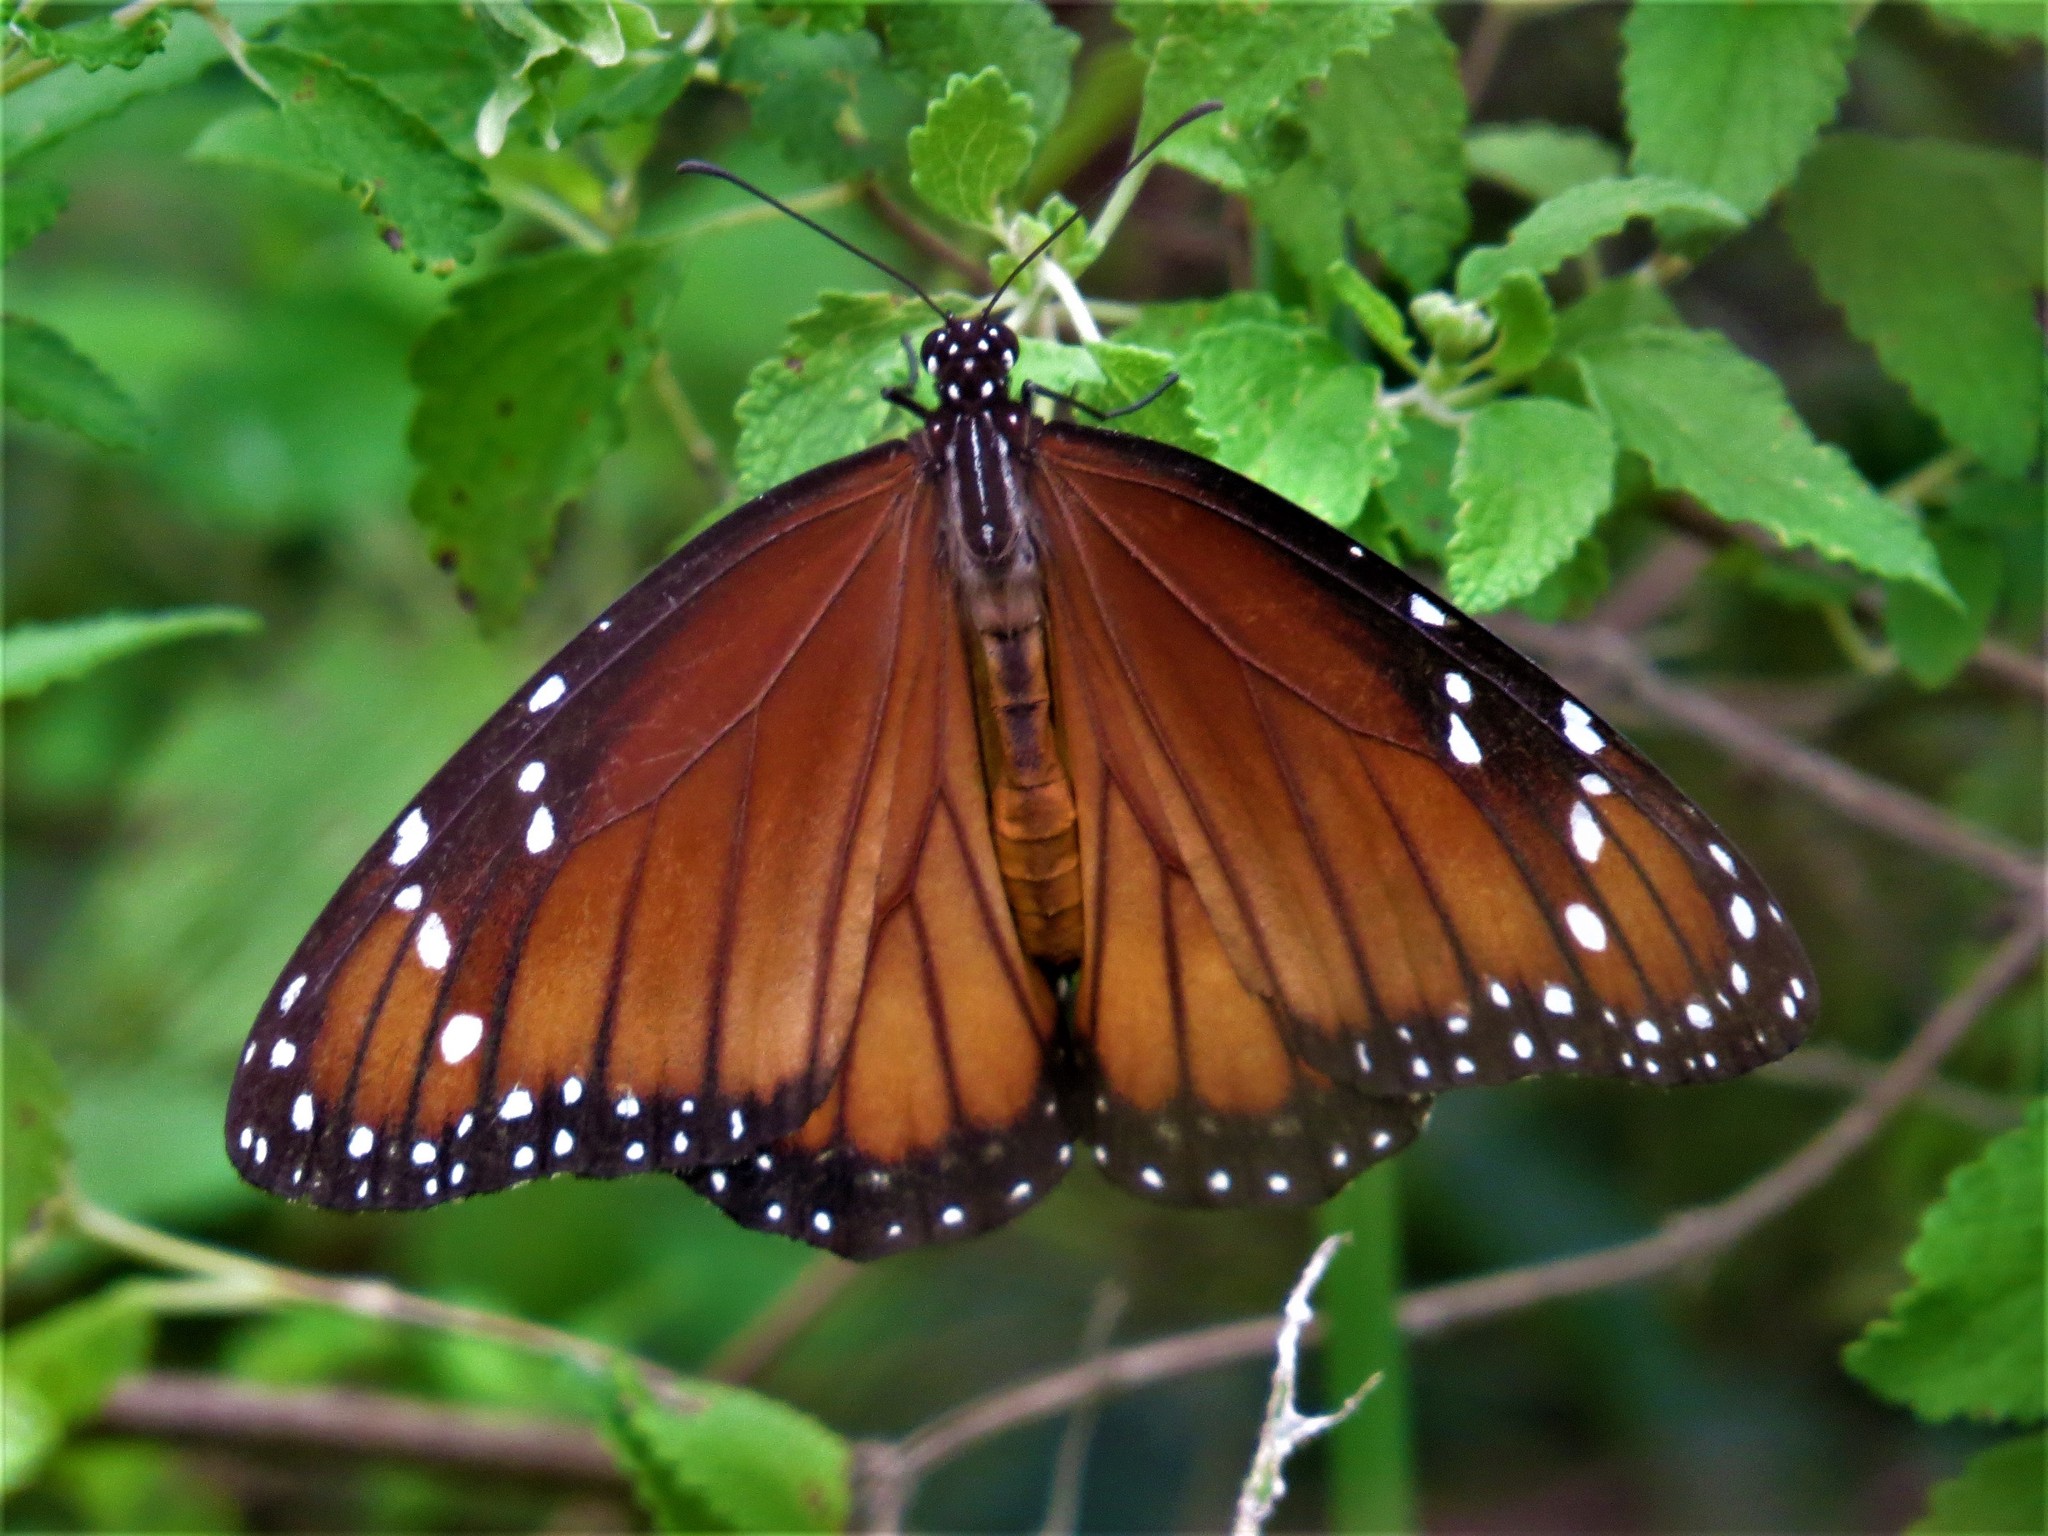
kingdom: Animalia
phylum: Arthropoda
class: Insecta
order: Lepidoptera
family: Nymphalidae
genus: Danaus
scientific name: Danaus eresimus
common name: Soldier
